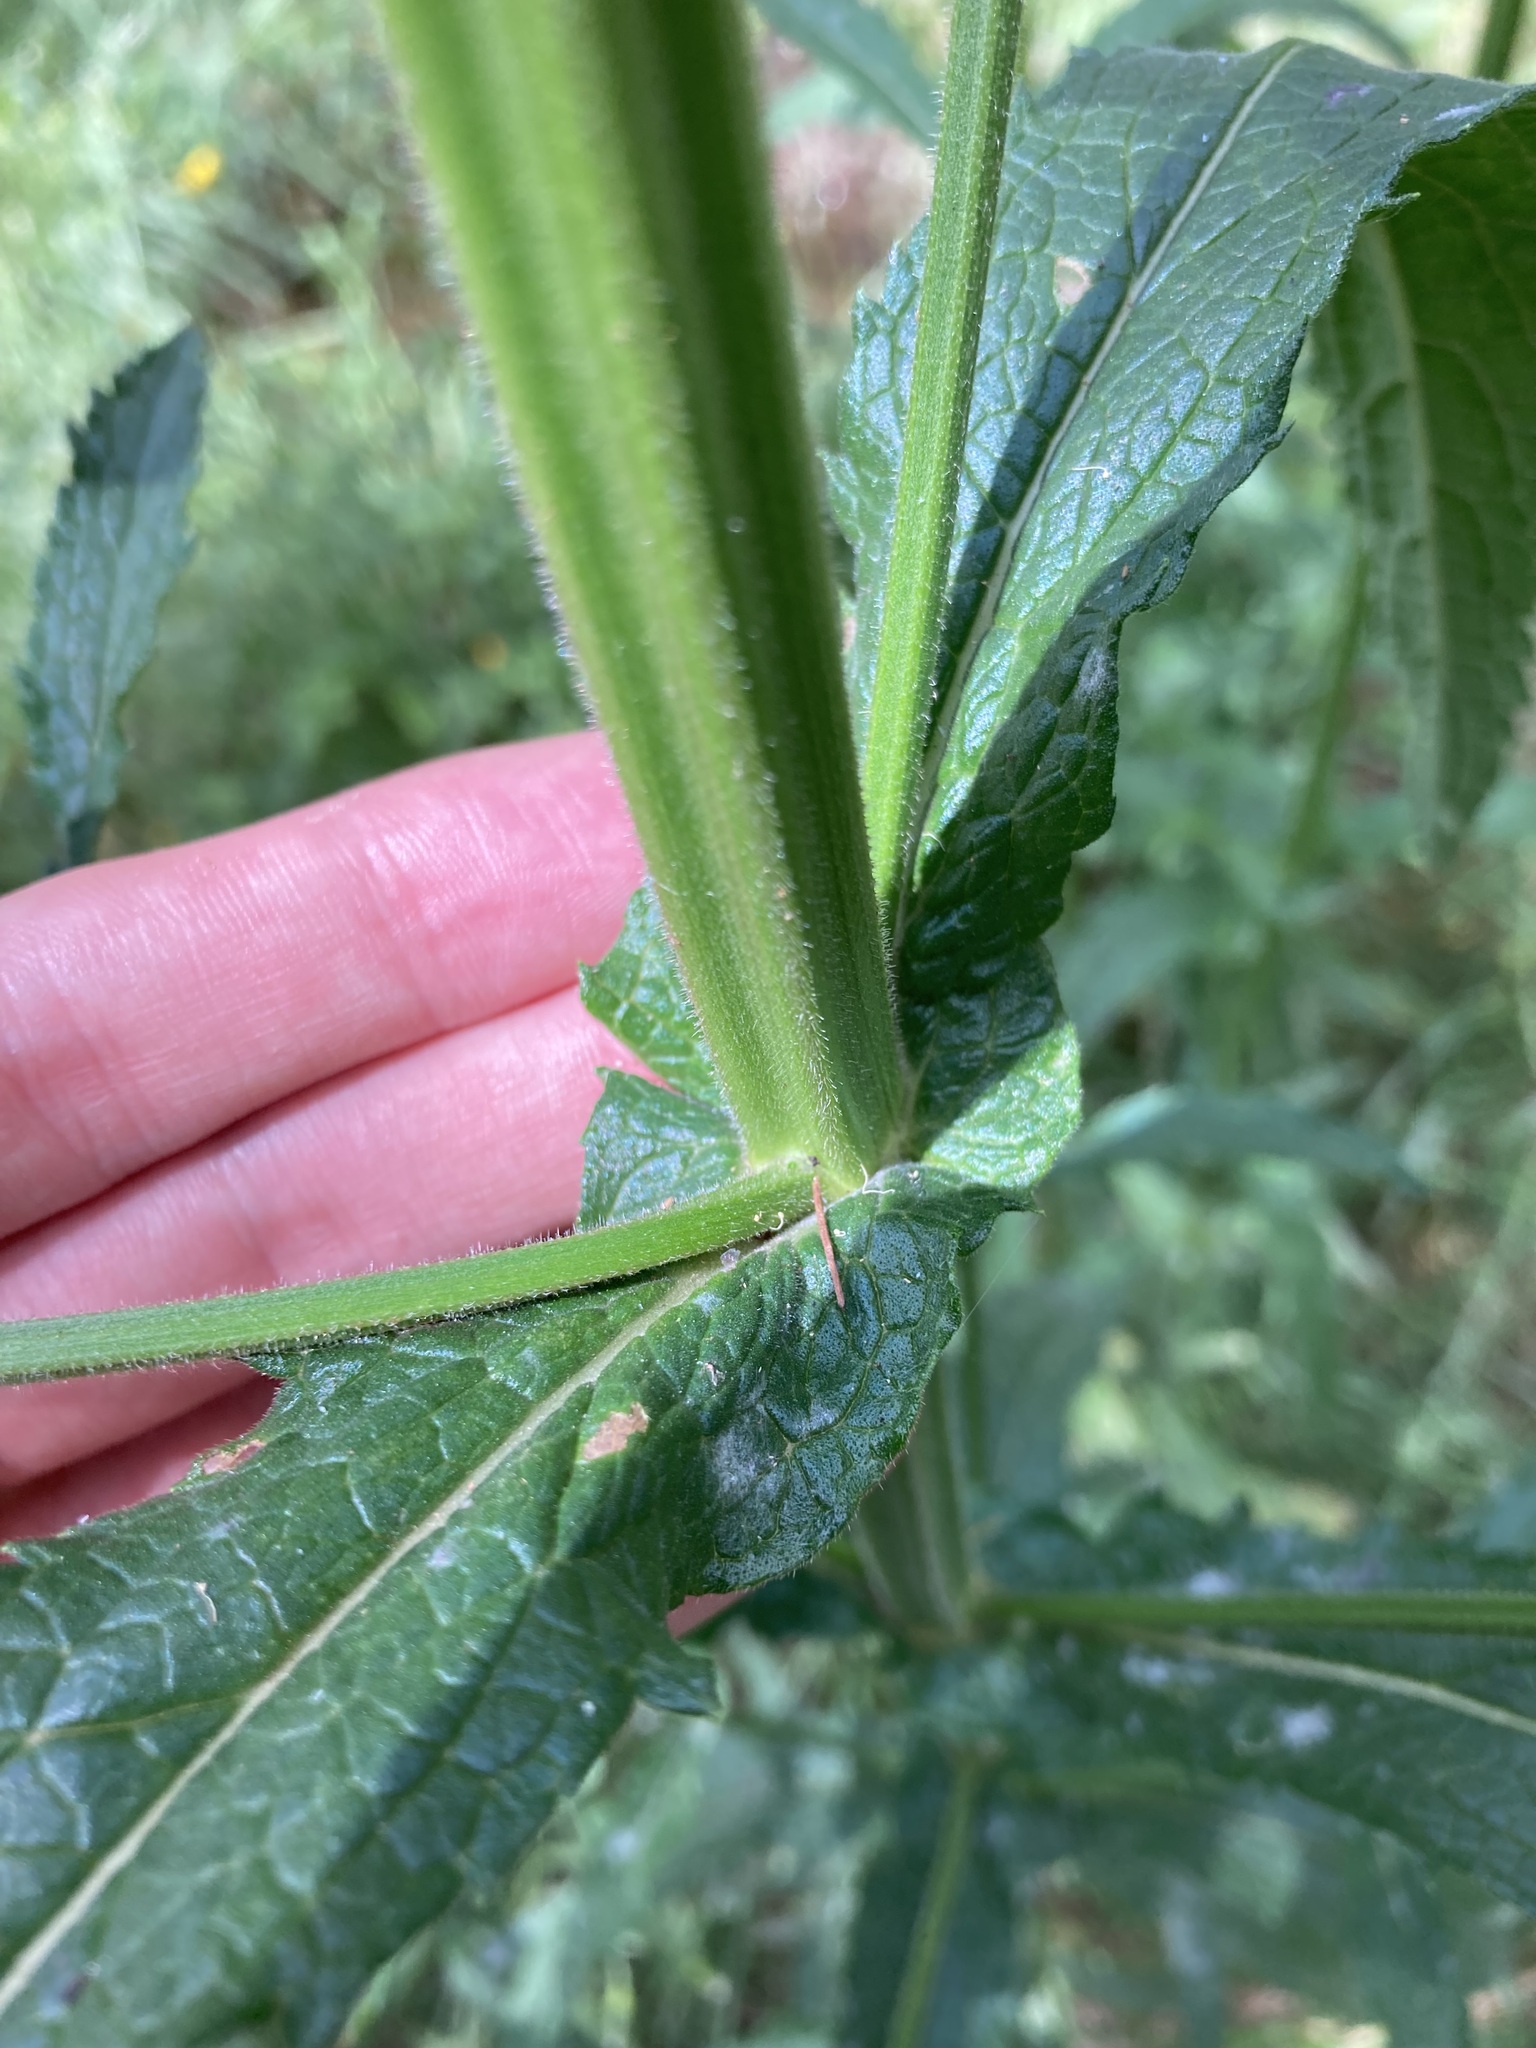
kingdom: Plantae
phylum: Tracheophyta
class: Magnoliopsida
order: Lamiales
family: Verbenaceae
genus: Verbena
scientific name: Verbena bonariensis
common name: Purpletop vervain
